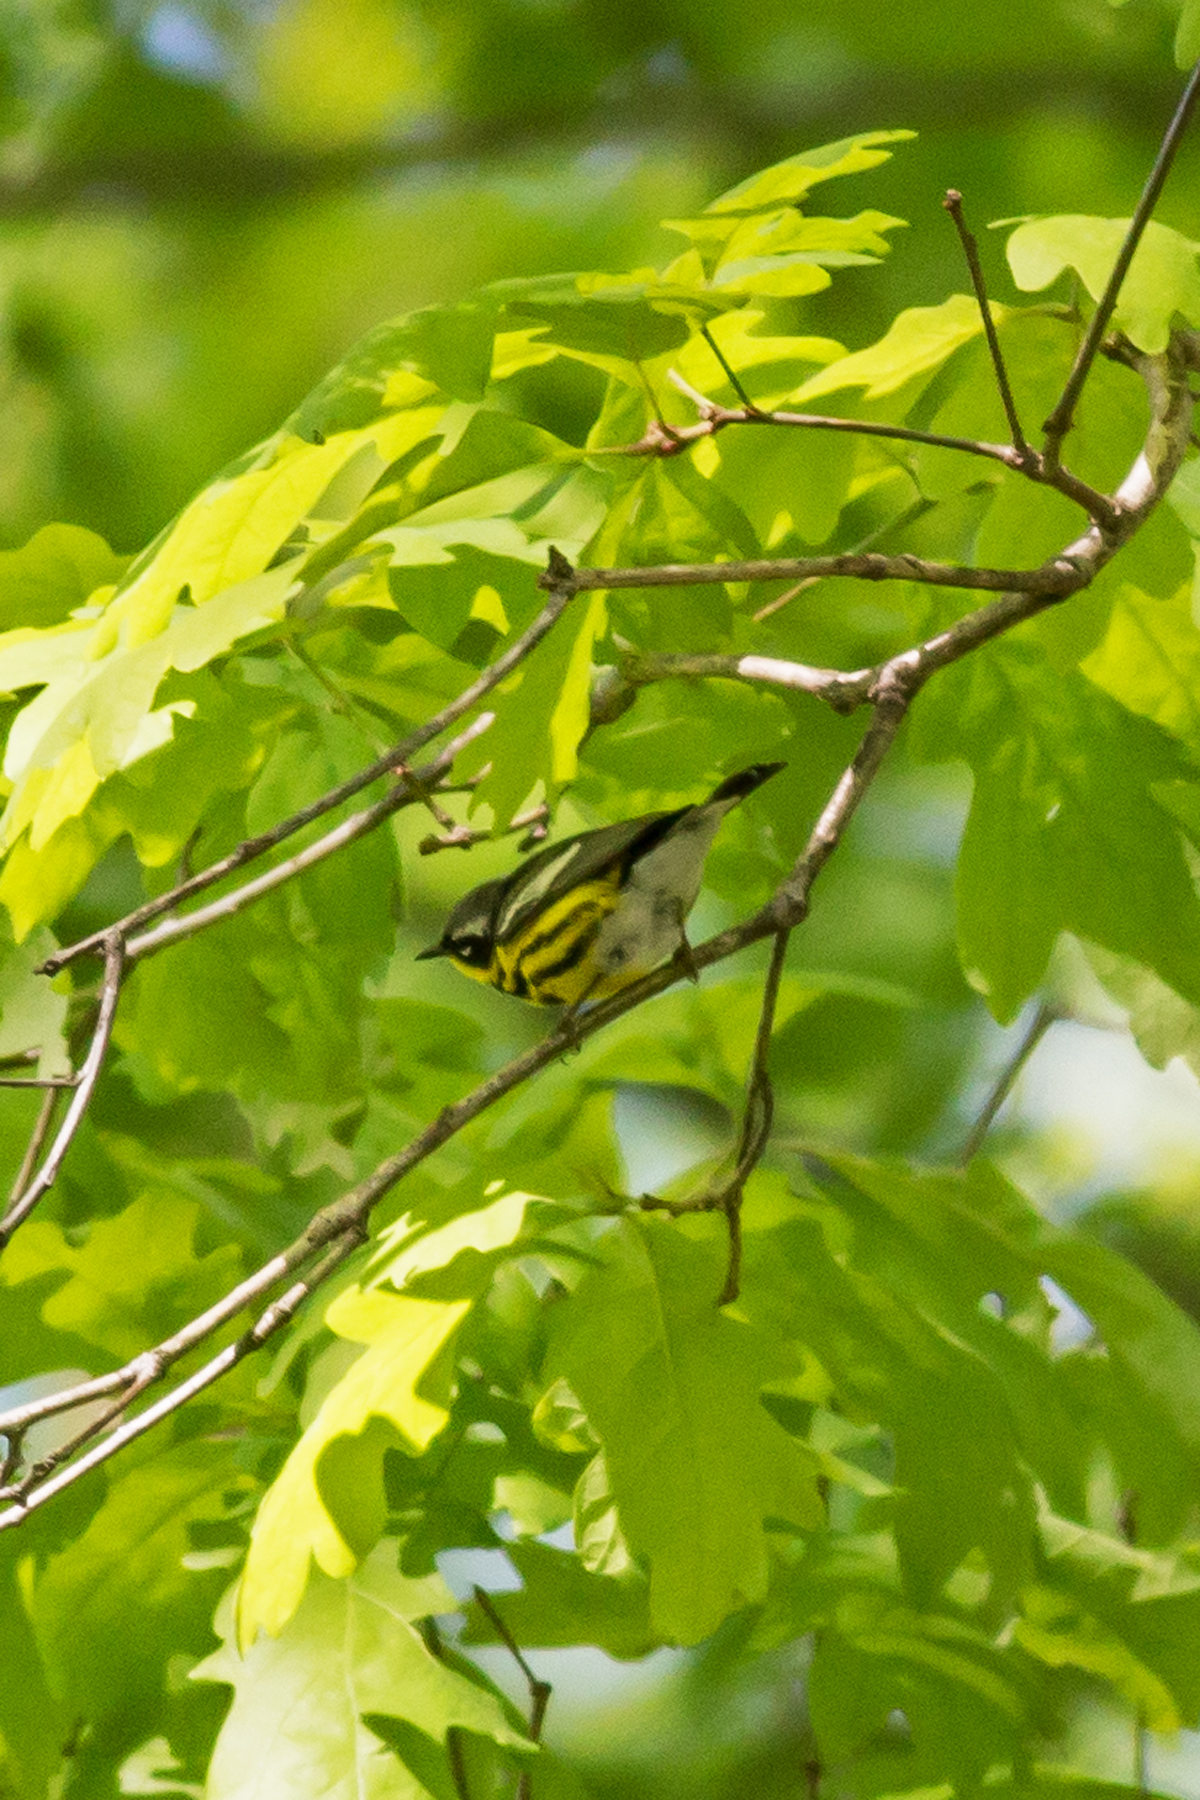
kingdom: Animalia
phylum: Chordata
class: Aves
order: Passeriformes
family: Parulidae
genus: Setophaga
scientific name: Setophaga magnolia
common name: Magnolia warbler
